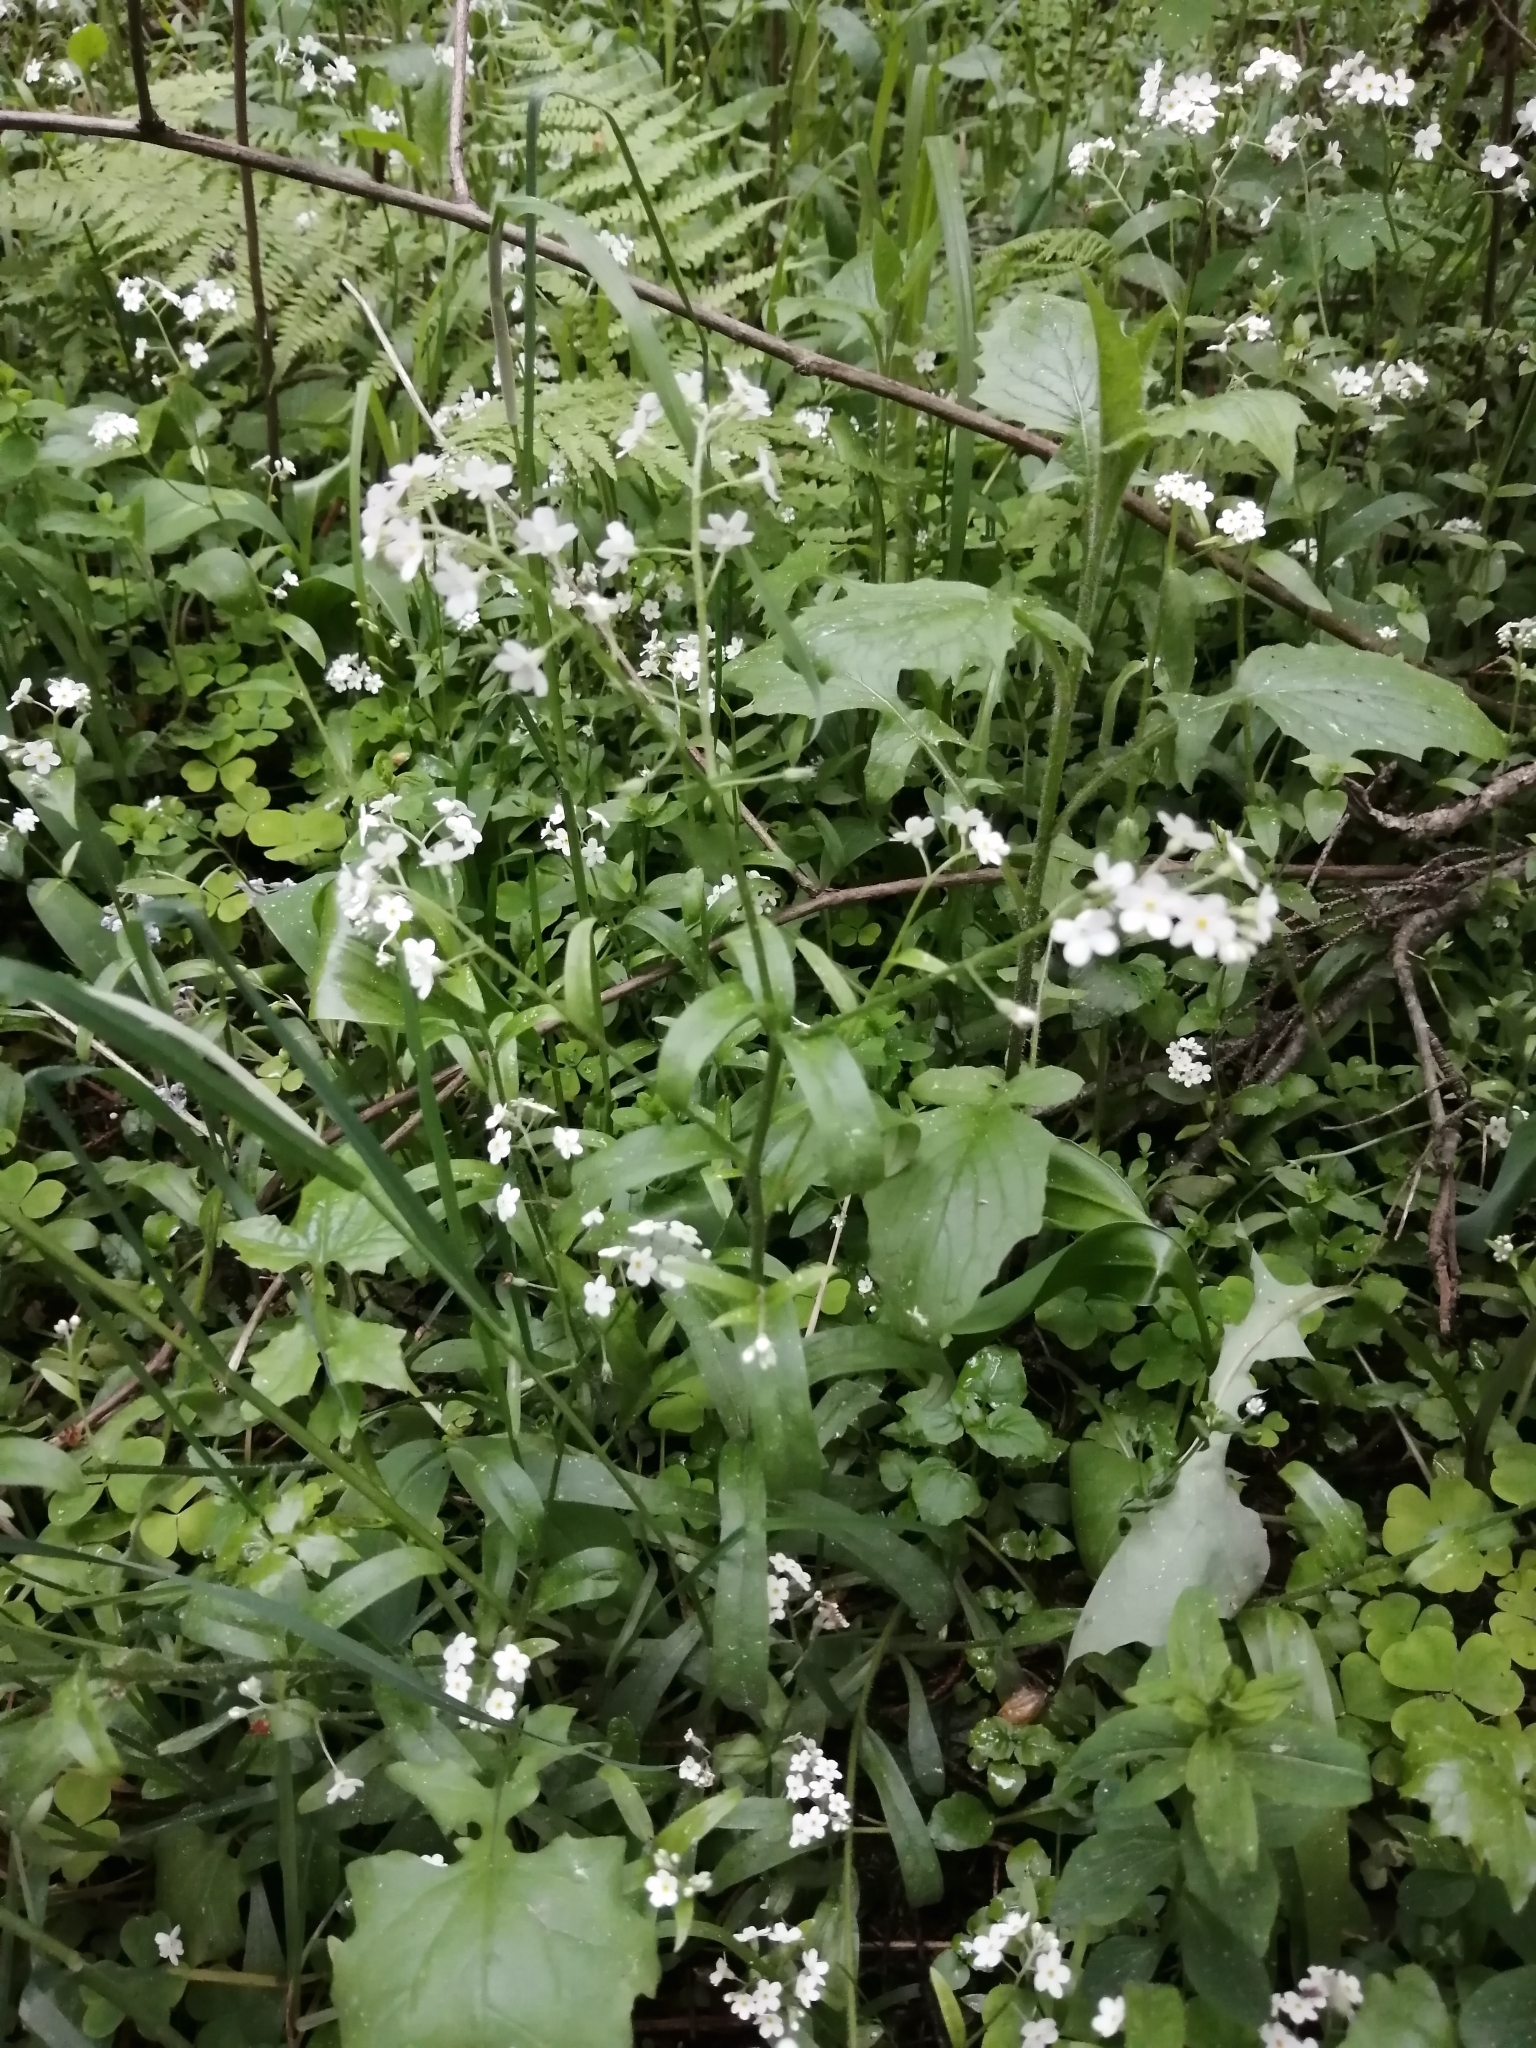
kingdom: Plantae
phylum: Tracheophyta
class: Magnoliopsida
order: Boraginales
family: Boraginaceae
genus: Myosotis
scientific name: Myosotis sylvatica
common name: Wood forget-me-not
